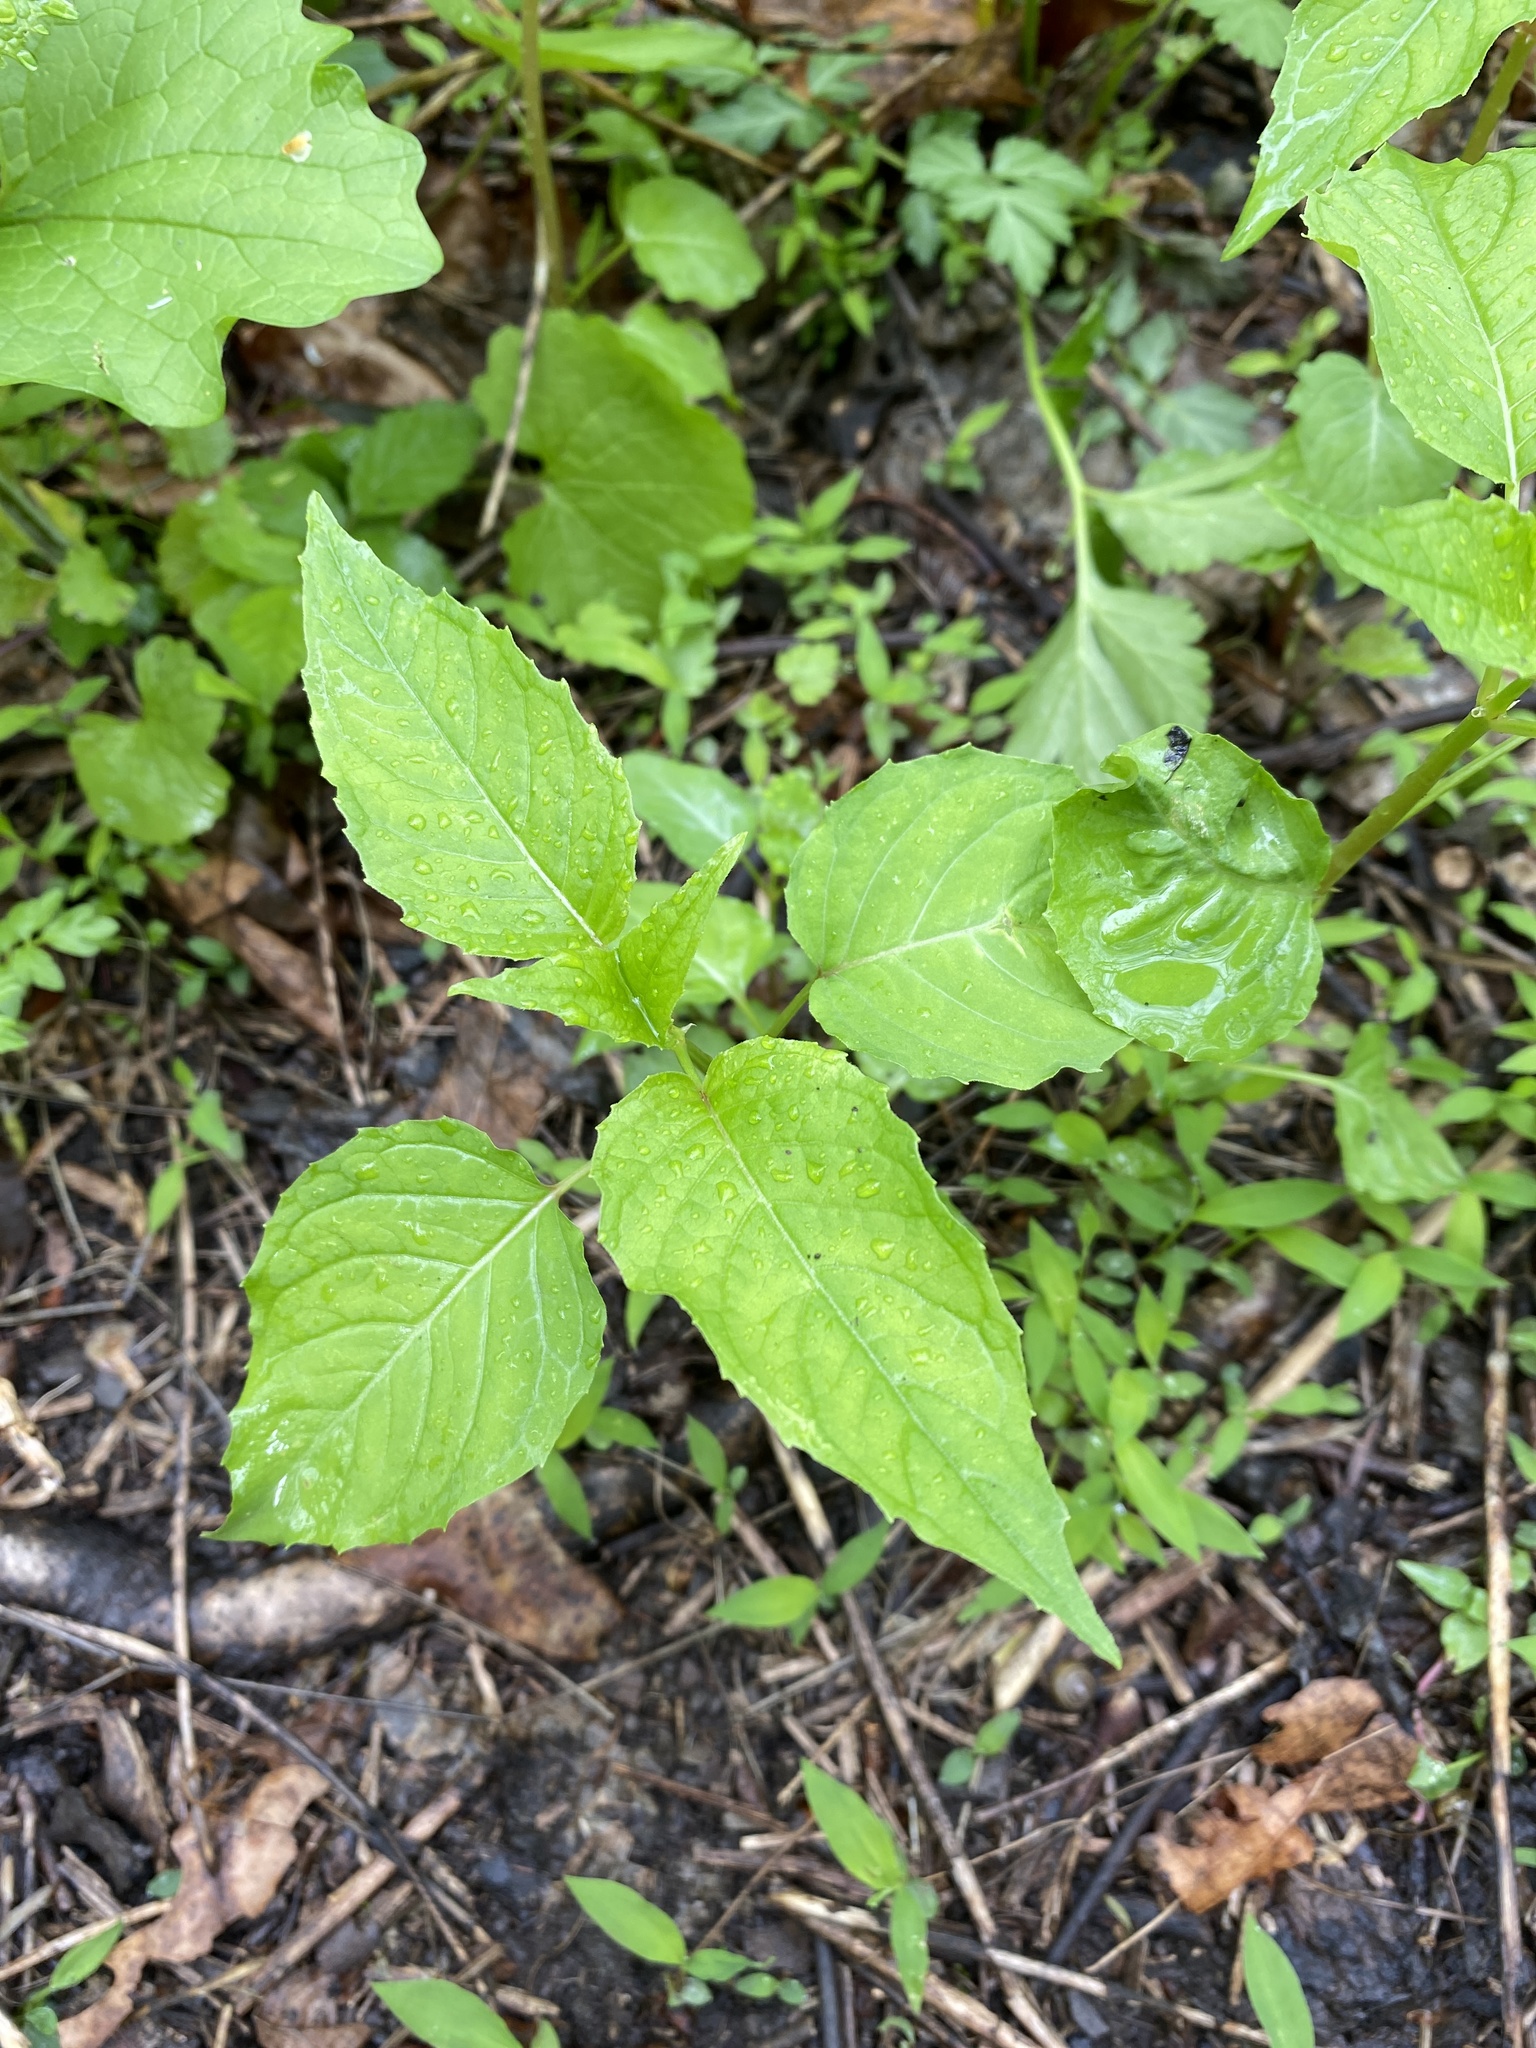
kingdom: Plantae
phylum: Tracheophyta
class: Magnoliopsida
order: Myrtales
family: Onagraceae
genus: Circaea
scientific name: Circaea canadensis
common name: Broad-leaved enchanter's nightshade
